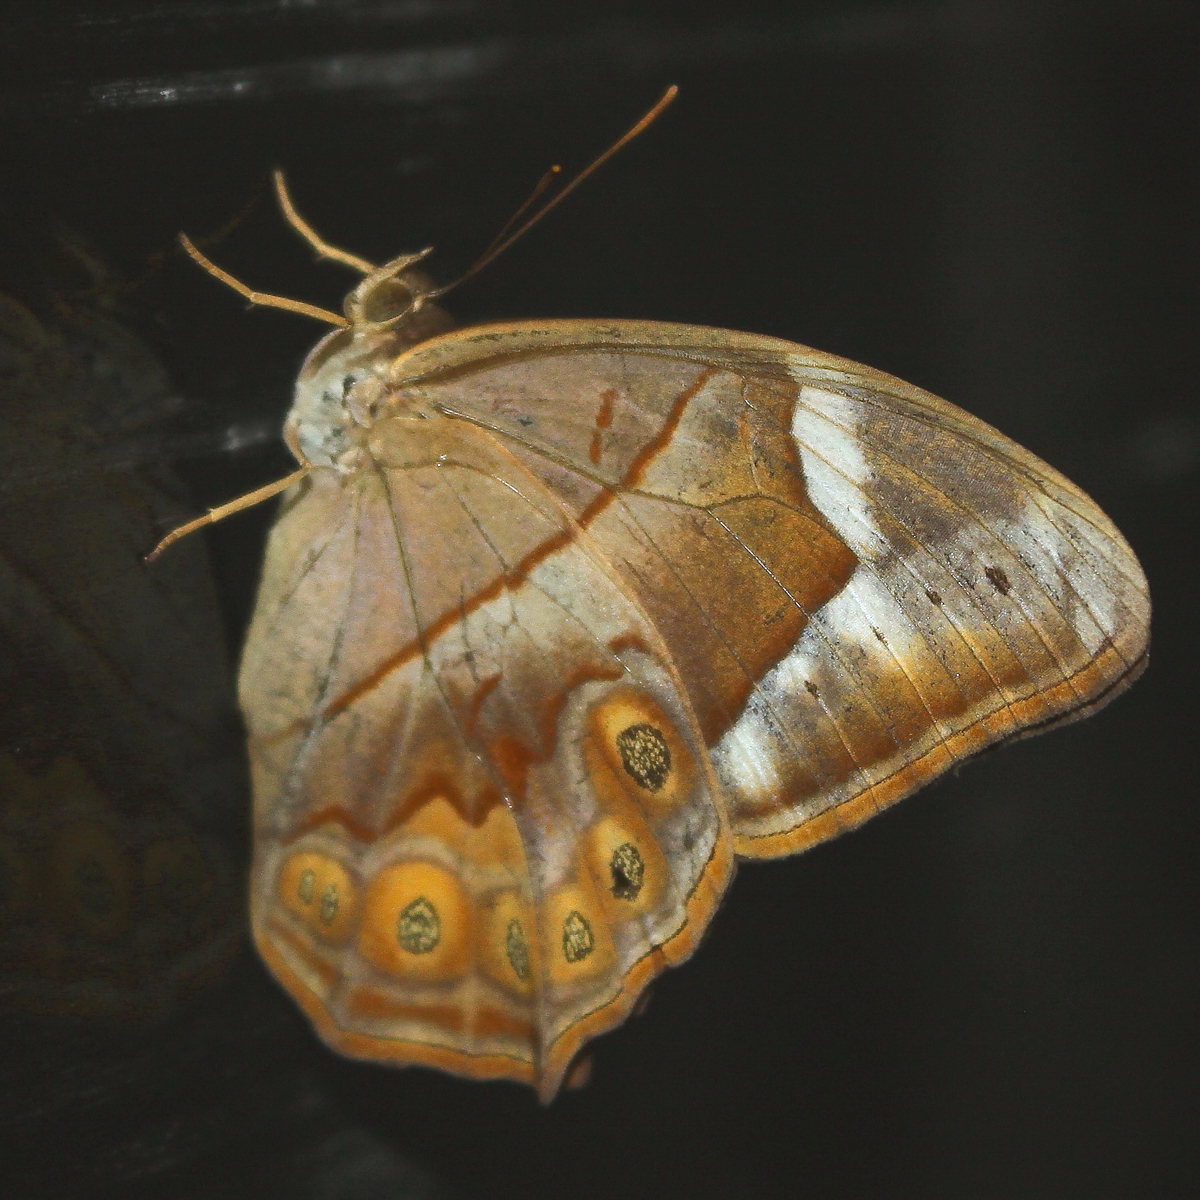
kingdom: Animalia
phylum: Arthropoda
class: Insecta
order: Lepidoptera
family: Nymphalidae
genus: Lethe
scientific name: Lethe minerva
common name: Banded red forester
